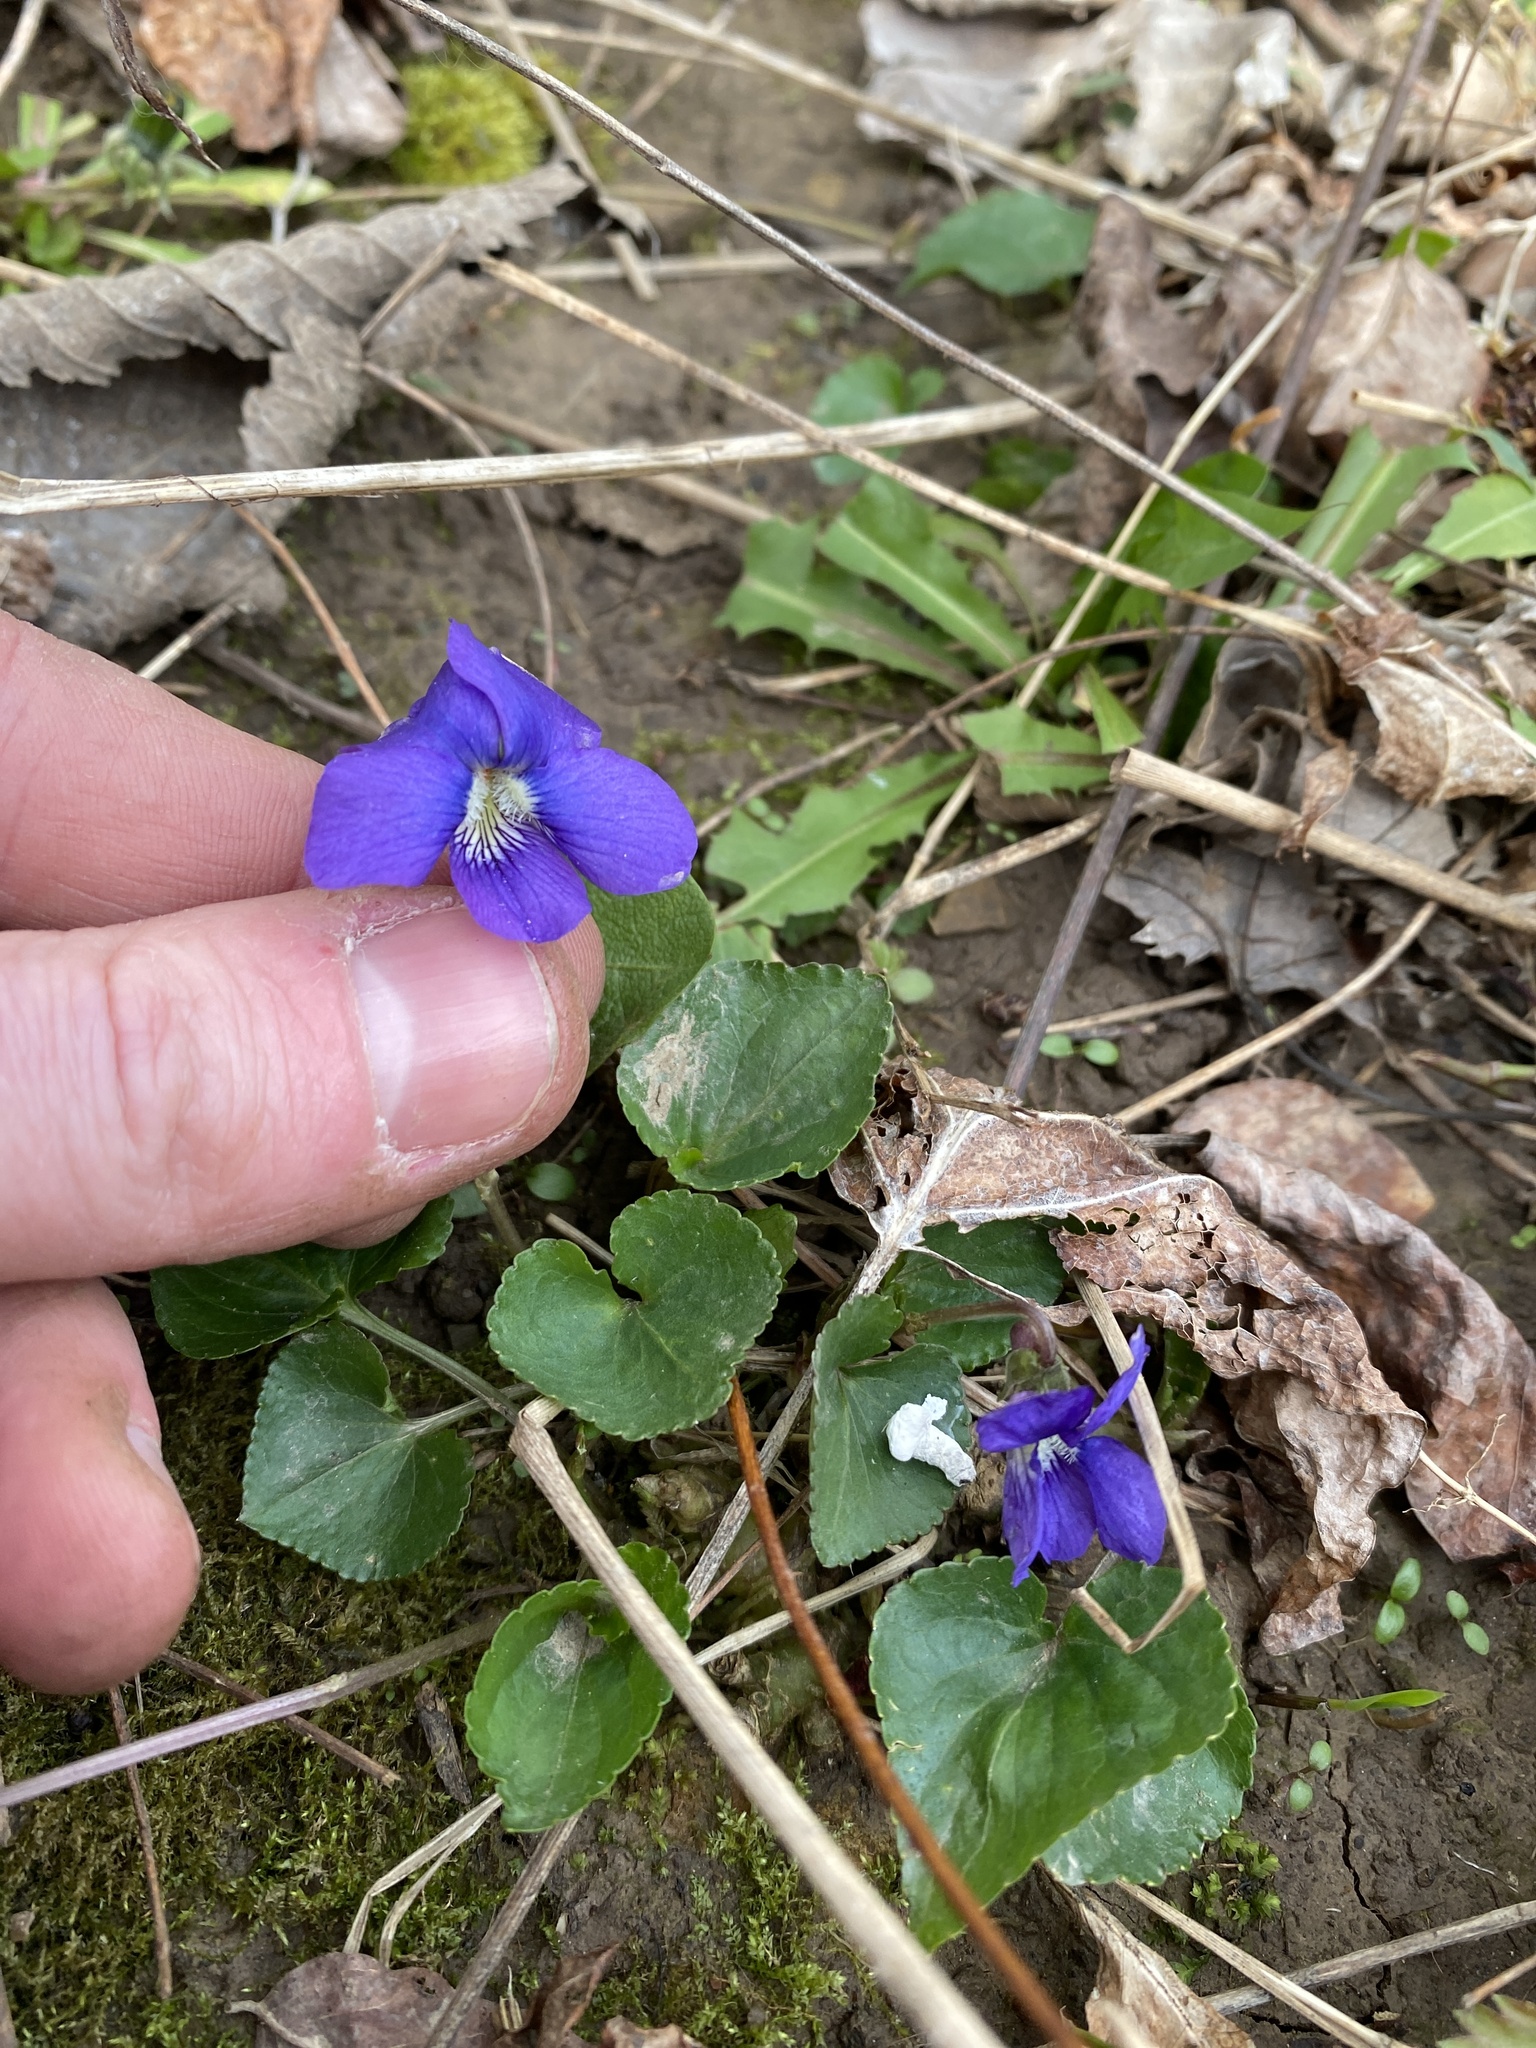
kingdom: Plantae
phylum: Tracheophyta
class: Magnoliopsida
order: Malpighiales
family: Violaceae
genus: Viola
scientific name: Viola sororia
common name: Dooryard violet
